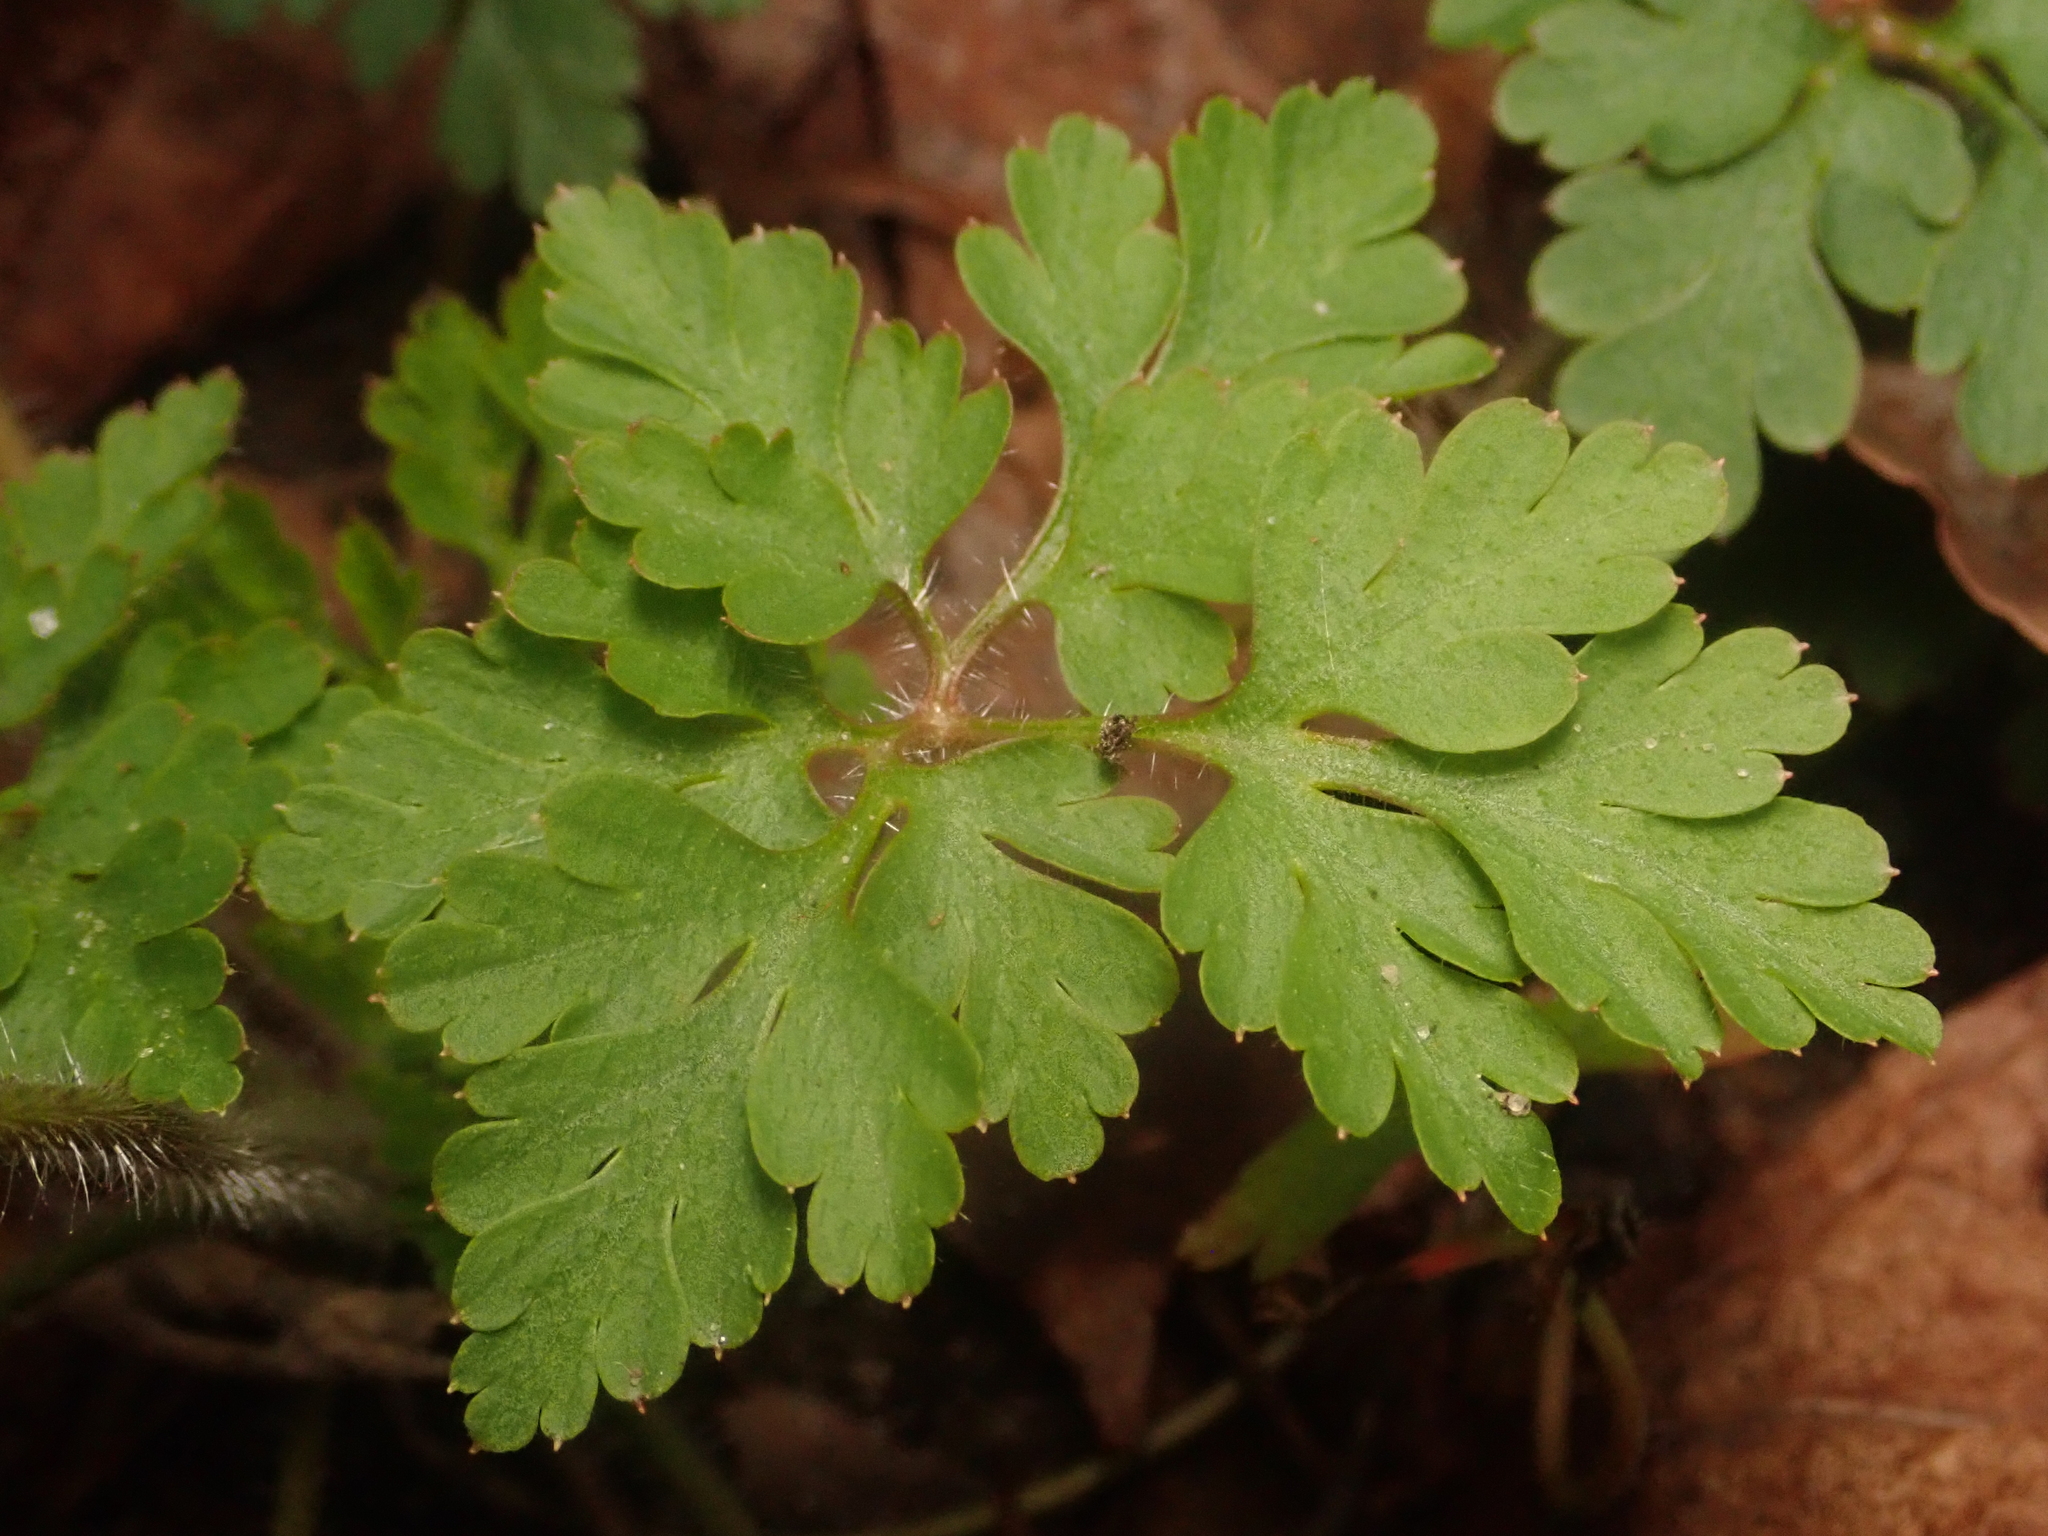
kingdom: Plantae
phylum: Tracheophyta
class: Magnoliopsida
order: Geraniales
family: Geraniaceae
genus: Geranium
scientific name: Geranium robertianum
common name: Herb-robert
